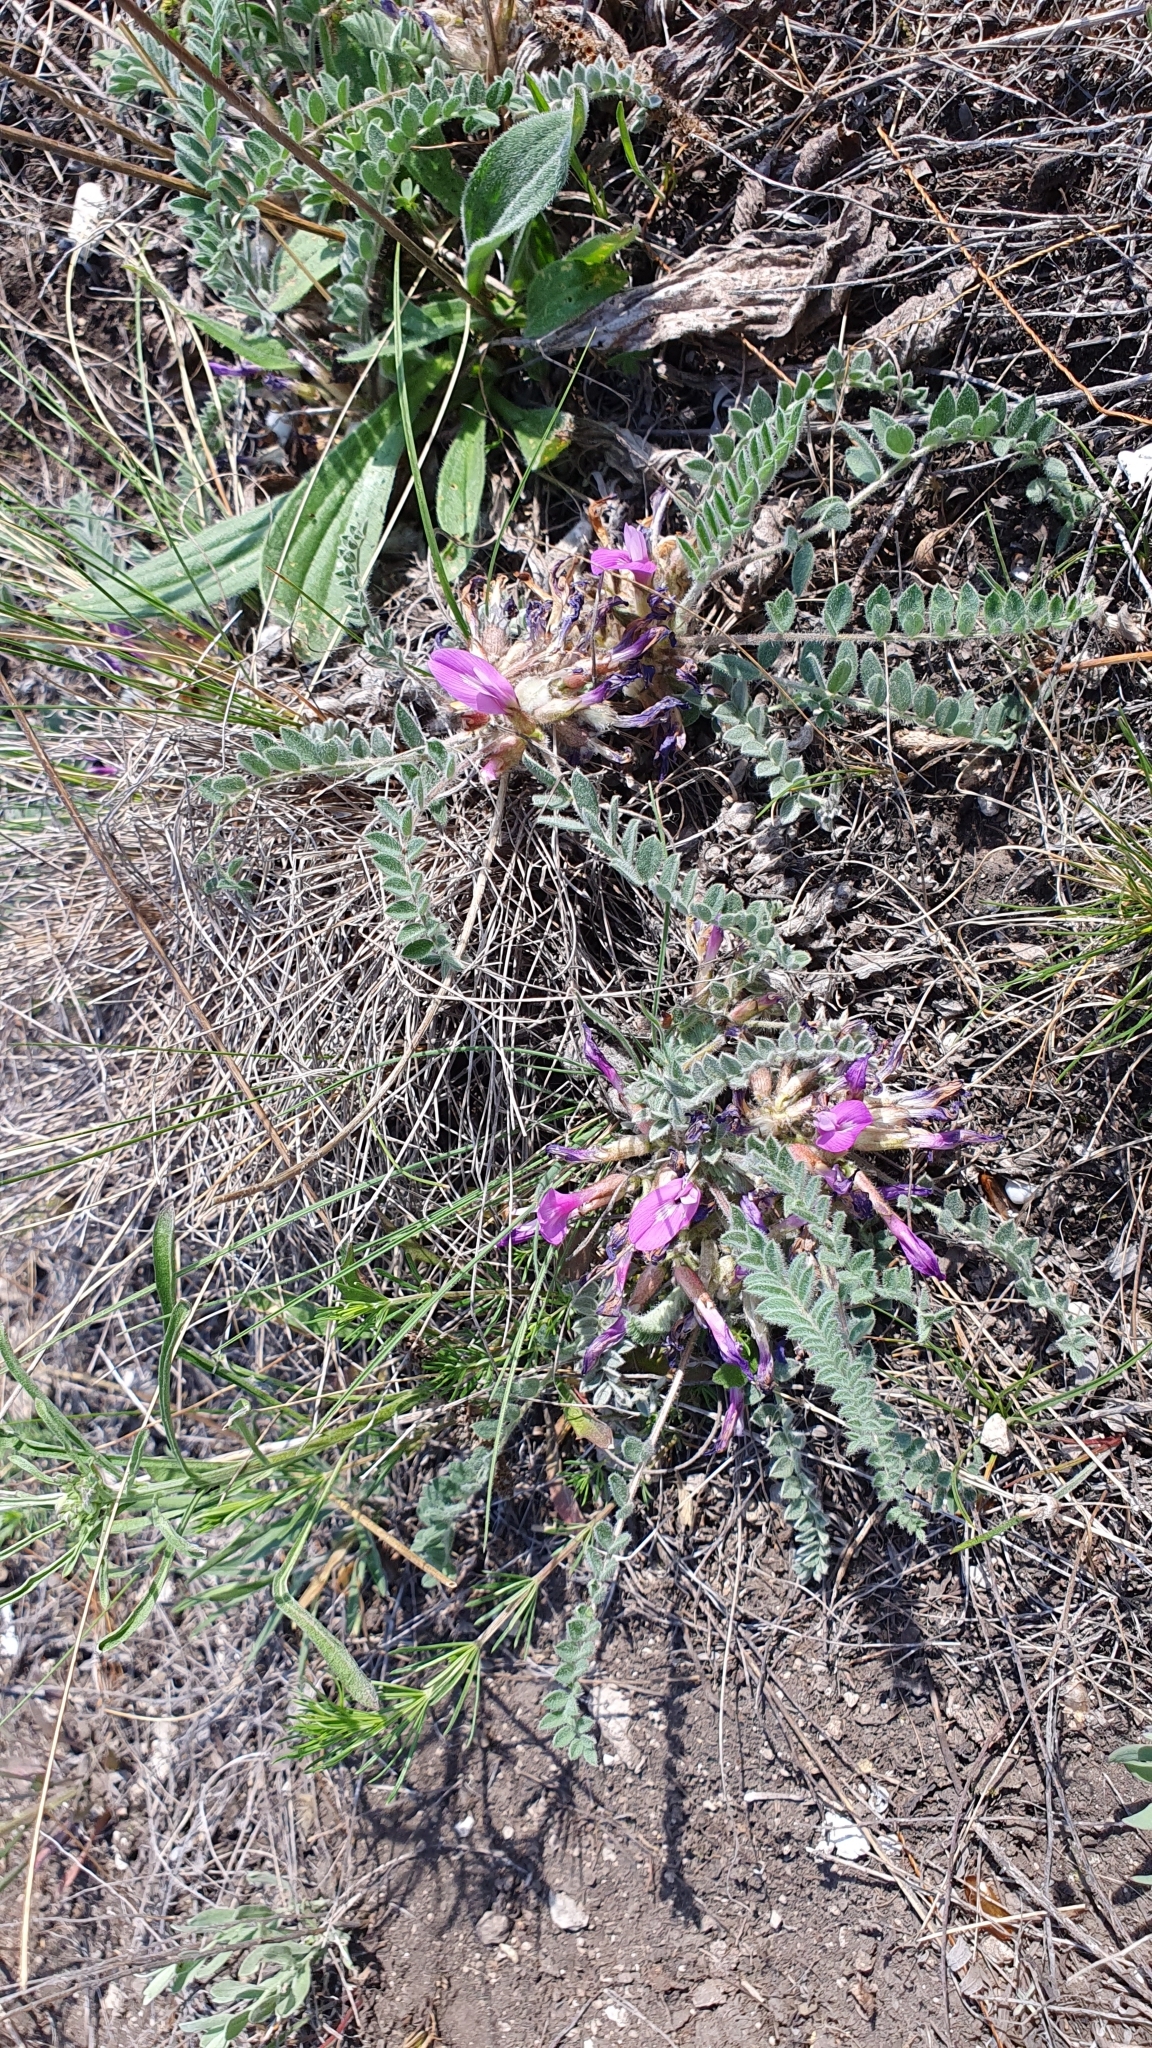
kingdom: Plantae
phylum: Tracheophyta
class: Magnoliopsida
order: Fabales
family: Fabaceae
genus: Astragalus
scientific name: Astragalus testiculatus
